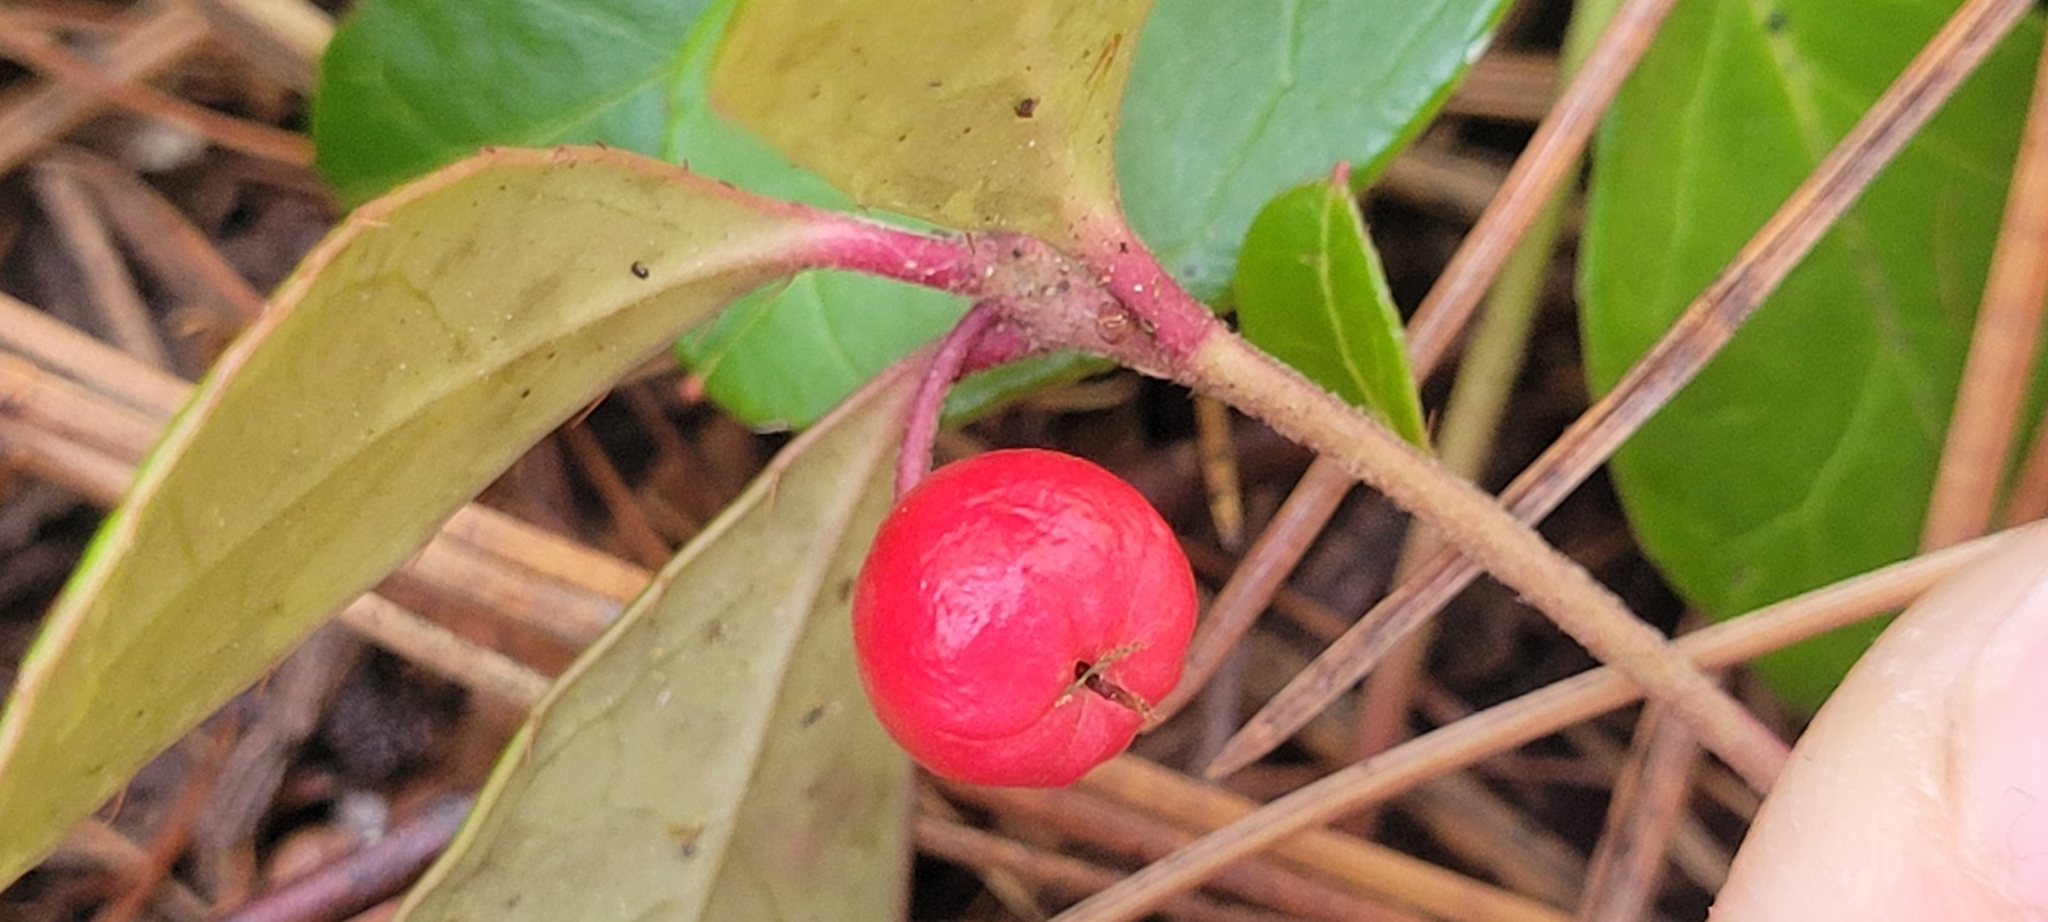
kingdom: Plantae
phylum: Tracheophyta
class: Magnoliopsida
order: Ericales
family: Ericaceae
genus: Gaultheria
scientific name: Gaultheria procumbens
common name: Checkerberry
